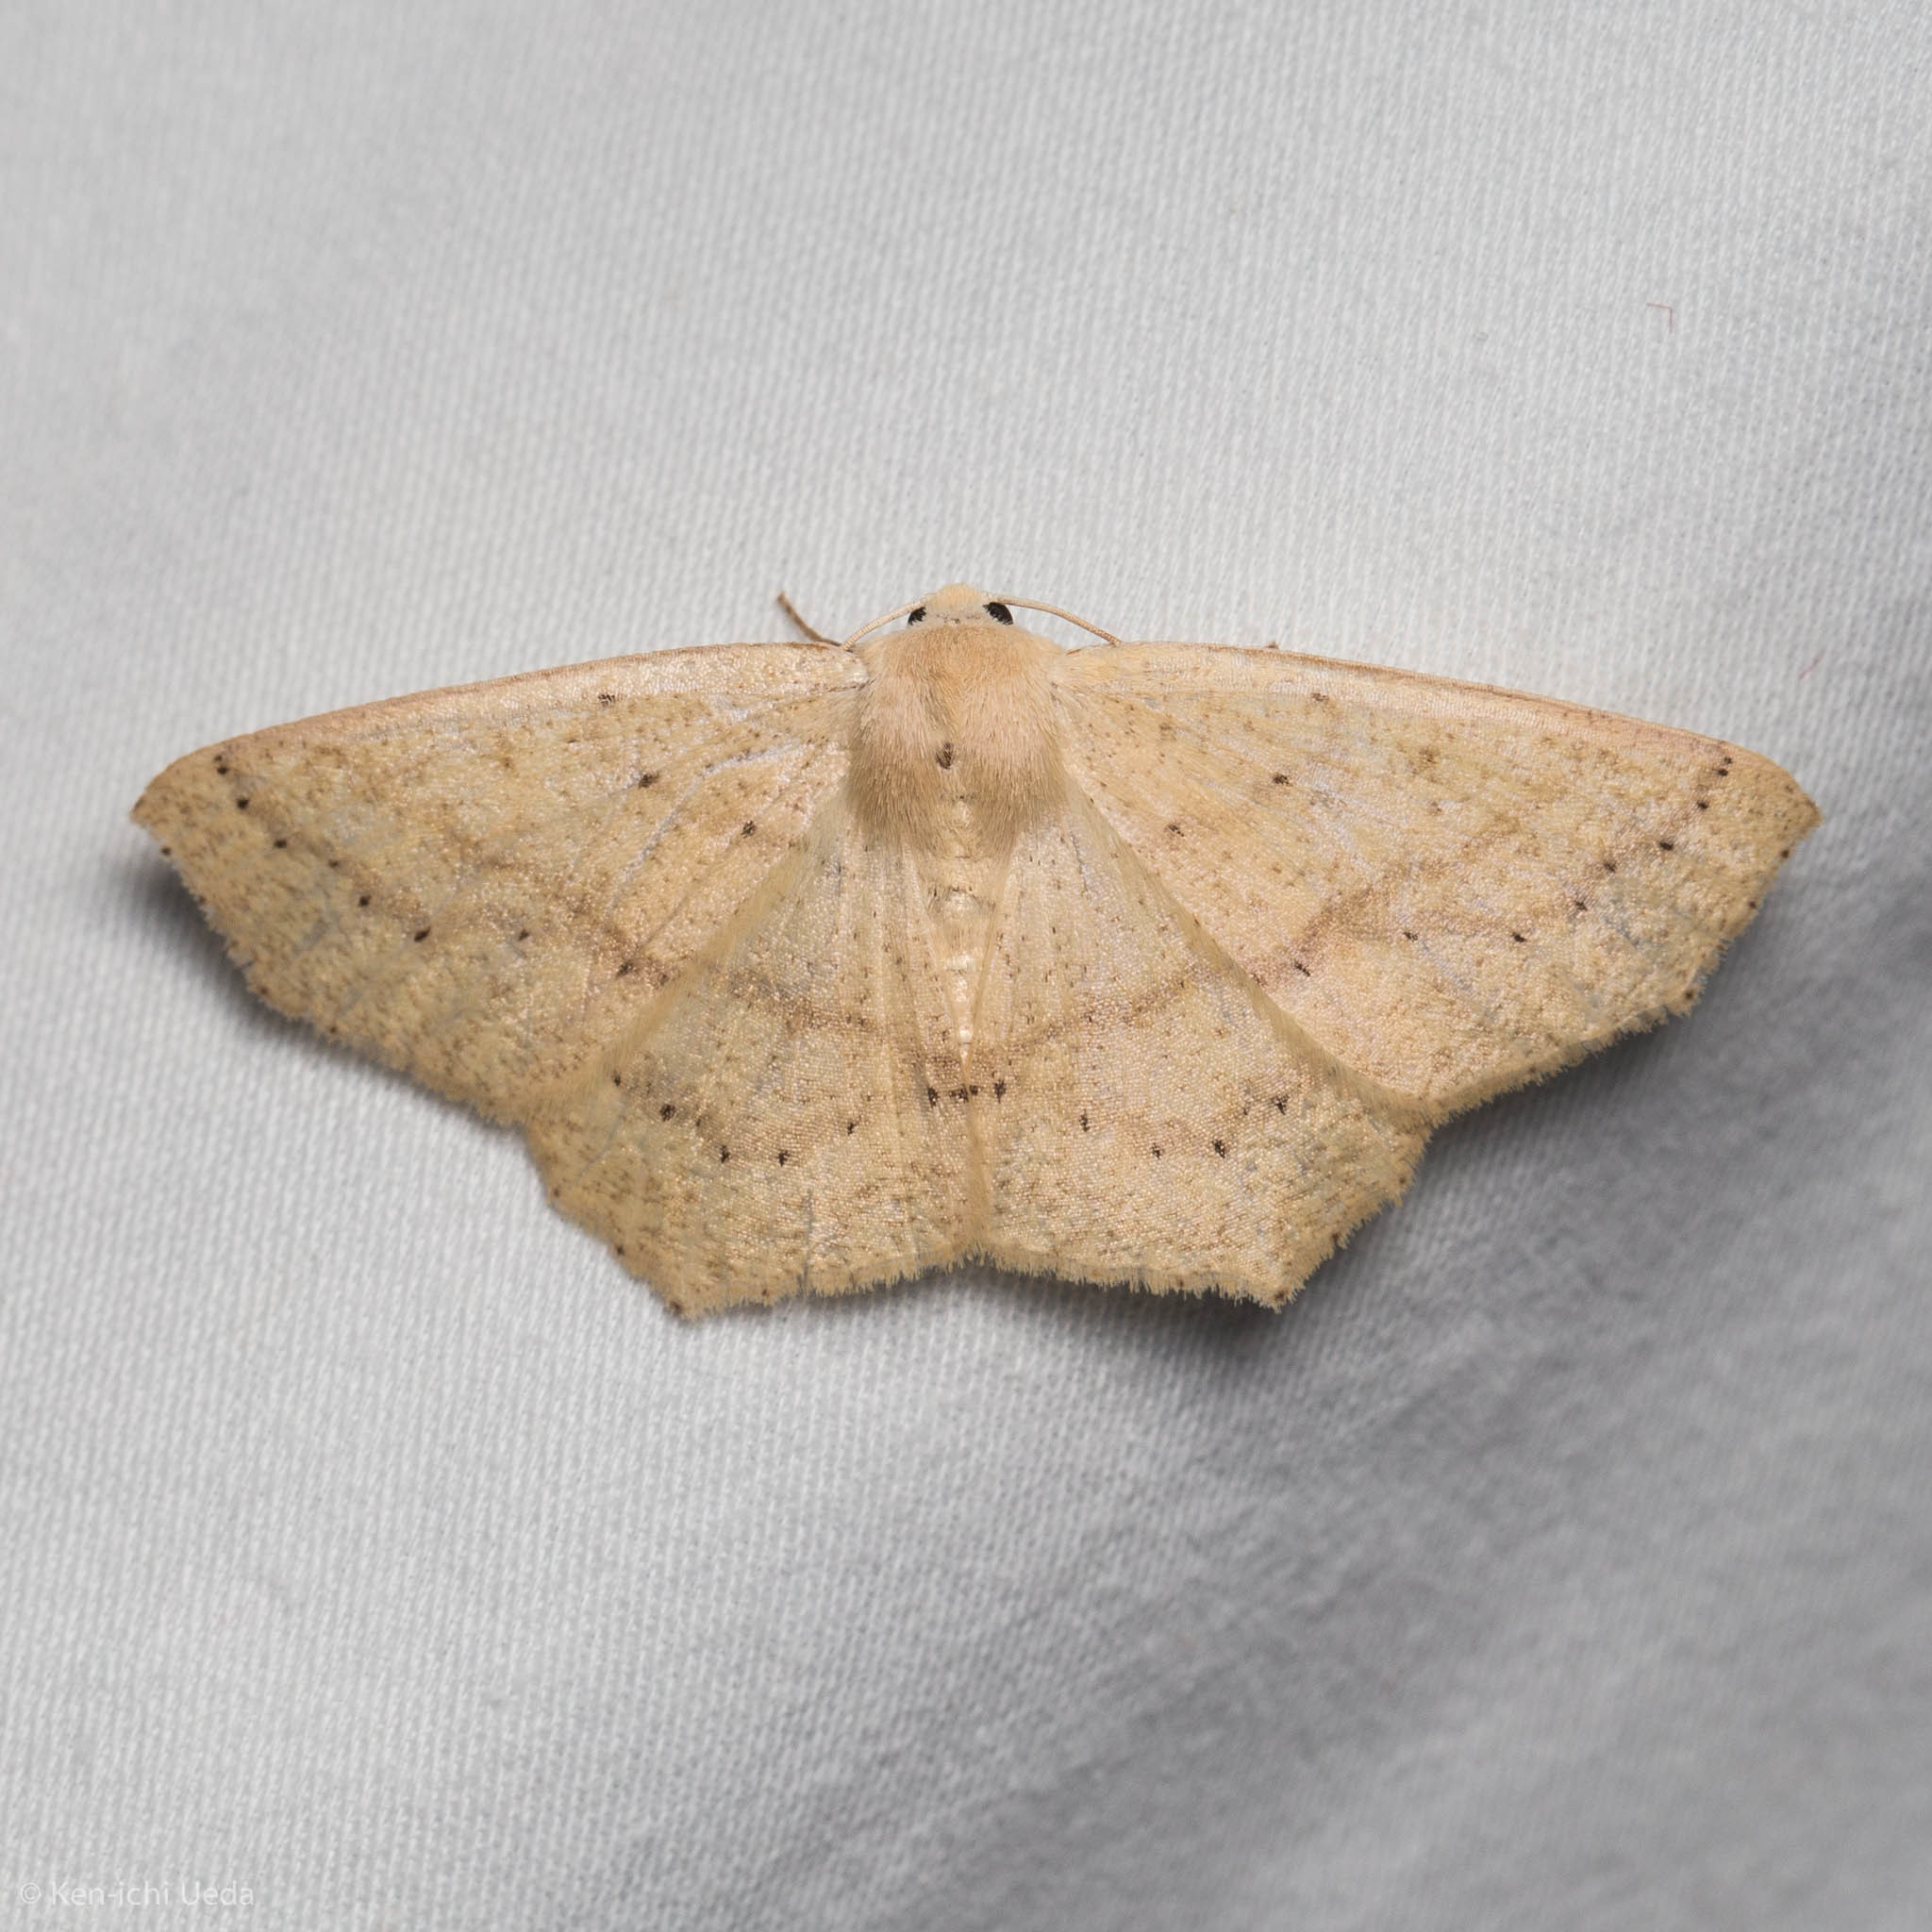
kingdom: Animalia
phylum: Arthropoda
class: Insecta
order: Lepidoptera
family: Geometridae
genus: Sabulodes
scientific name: Sabulodes aegrotata
